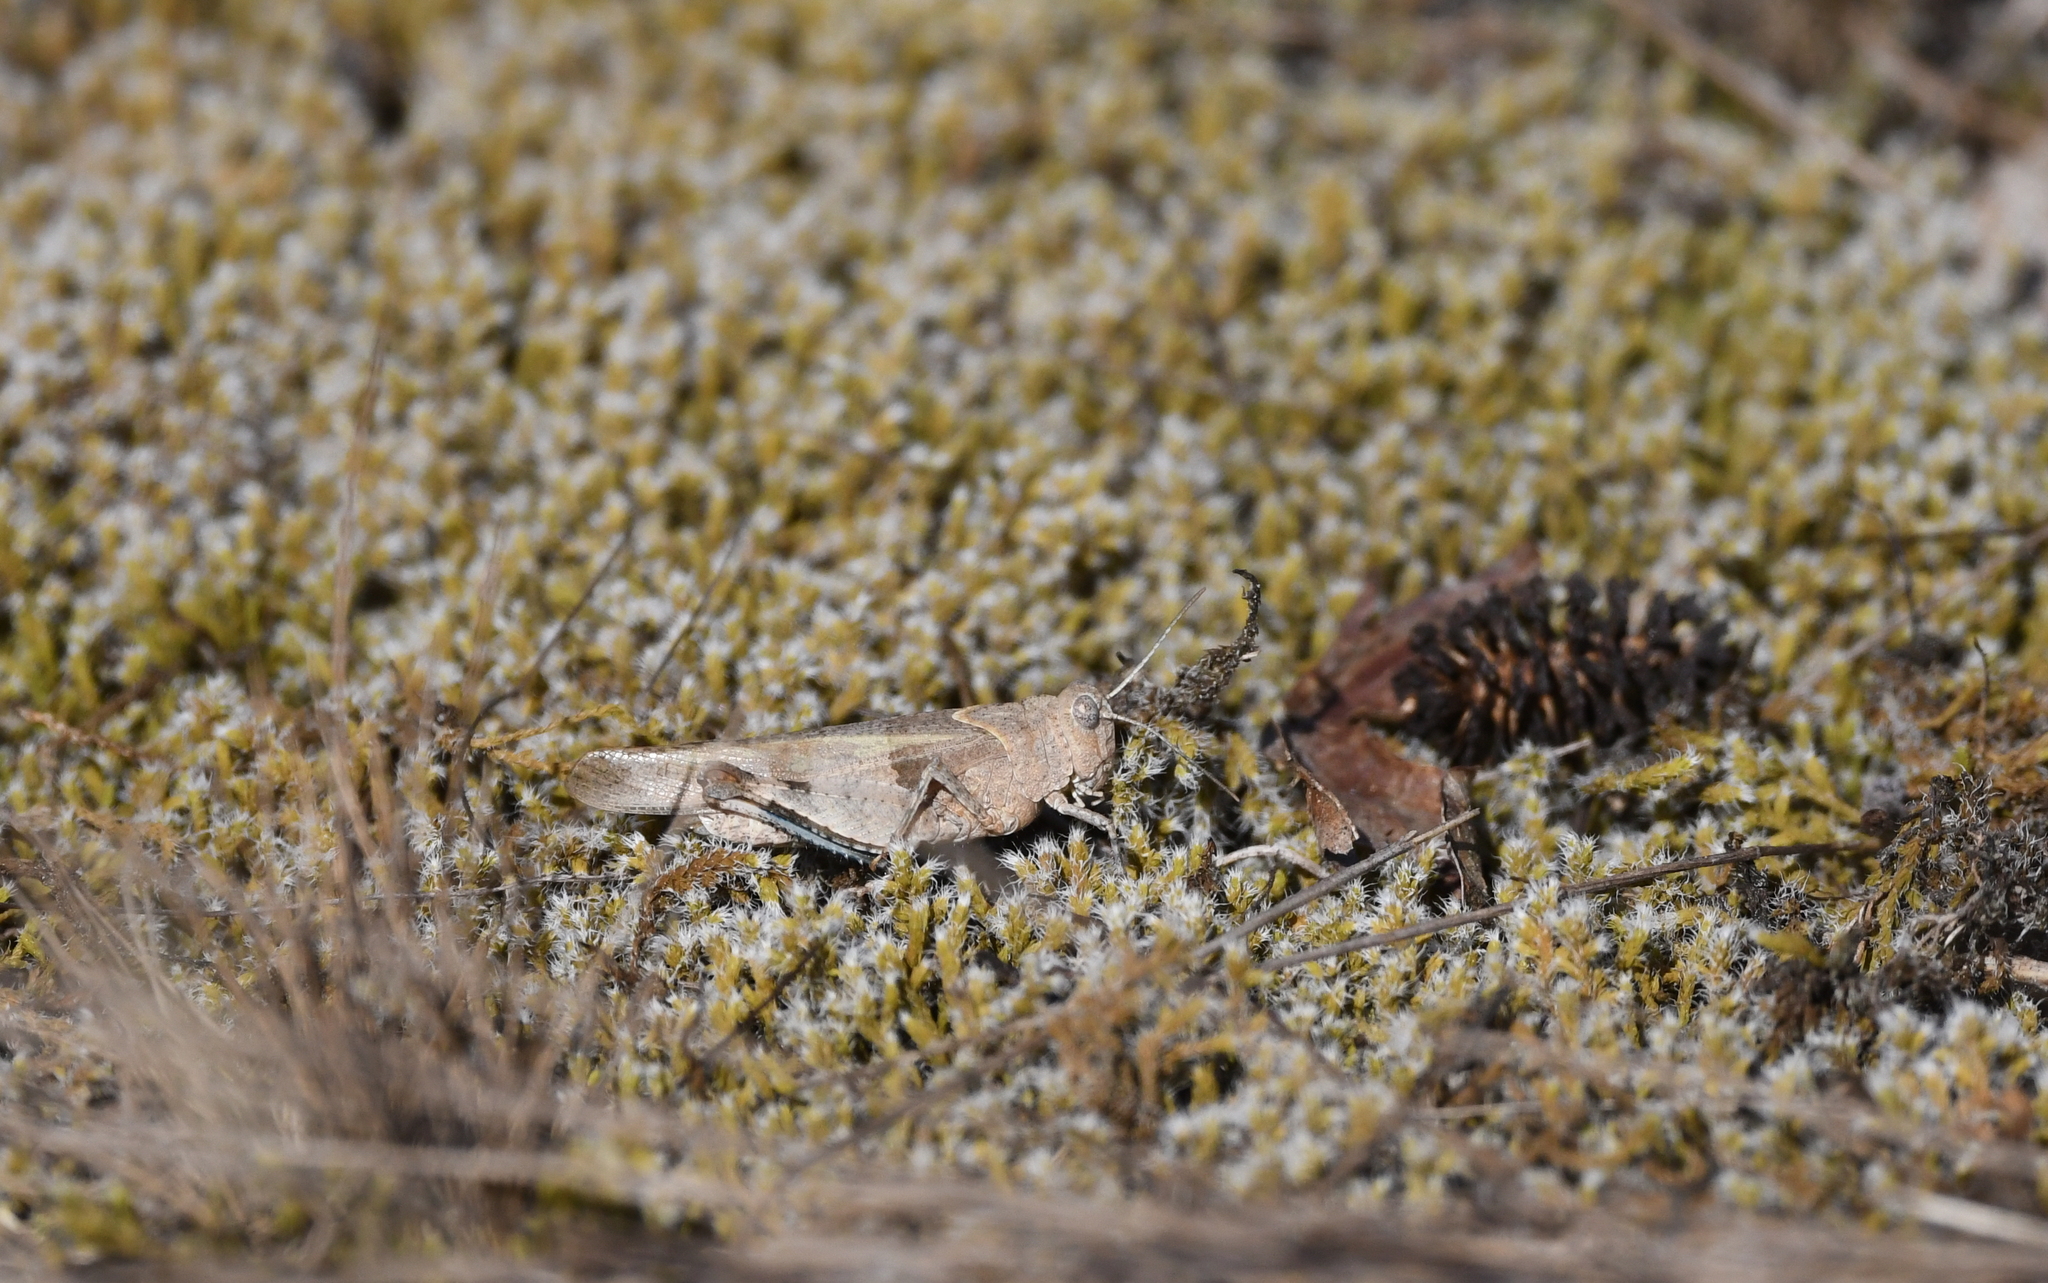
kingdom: Animalia
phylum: Arthropoda
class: Insecta
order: Orthoptera
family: Acrididae
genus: Oedipoda
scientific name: Oedipoda caerulescens
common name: Blue-winged grasshopper
